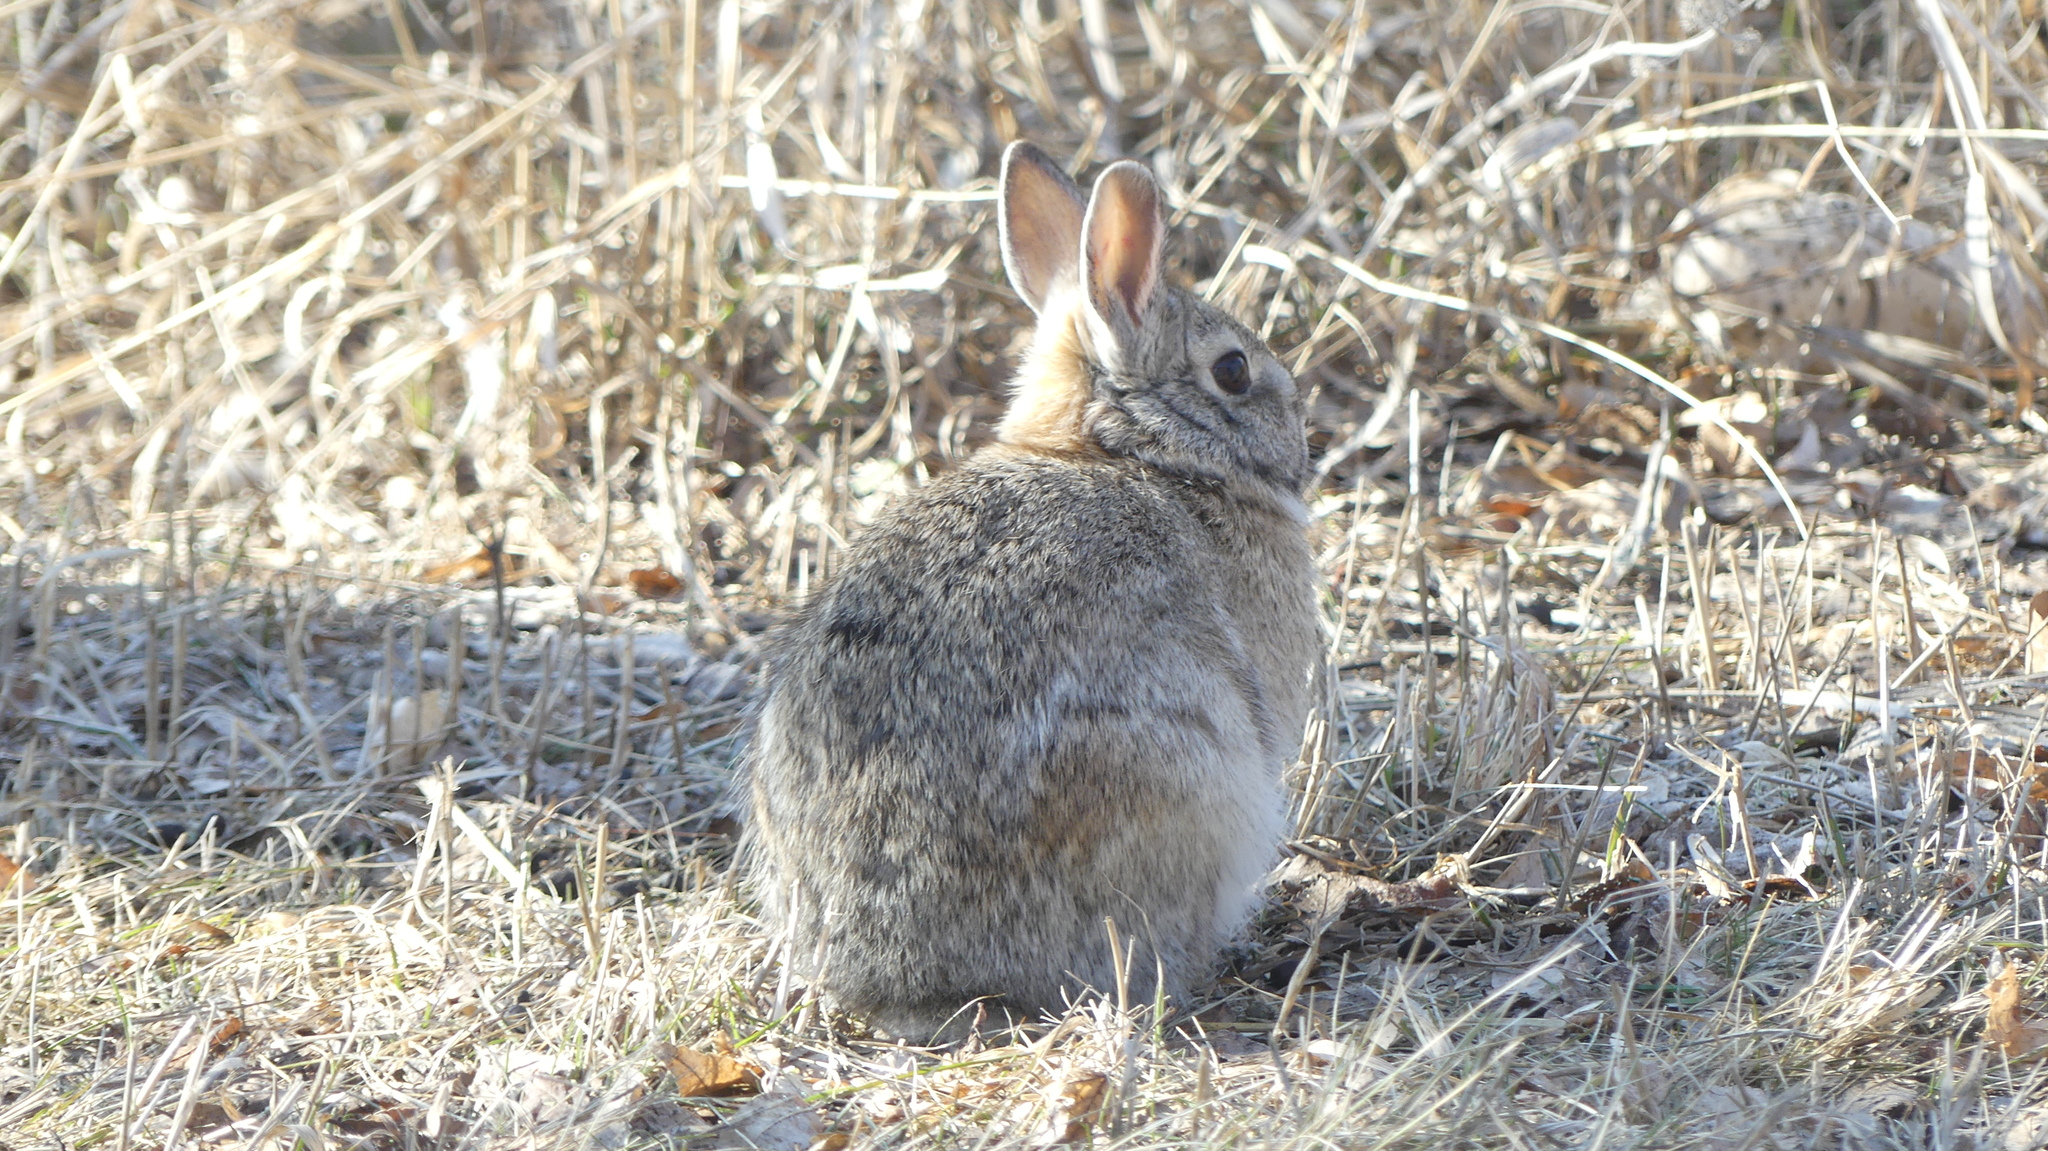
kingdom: Animalia
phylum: Chordata
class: Mammalia
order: Lagomorpha
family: Leporidae
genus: Sylvilagus
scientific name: Sylvilagus floridanus
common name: Eastern cottontail
